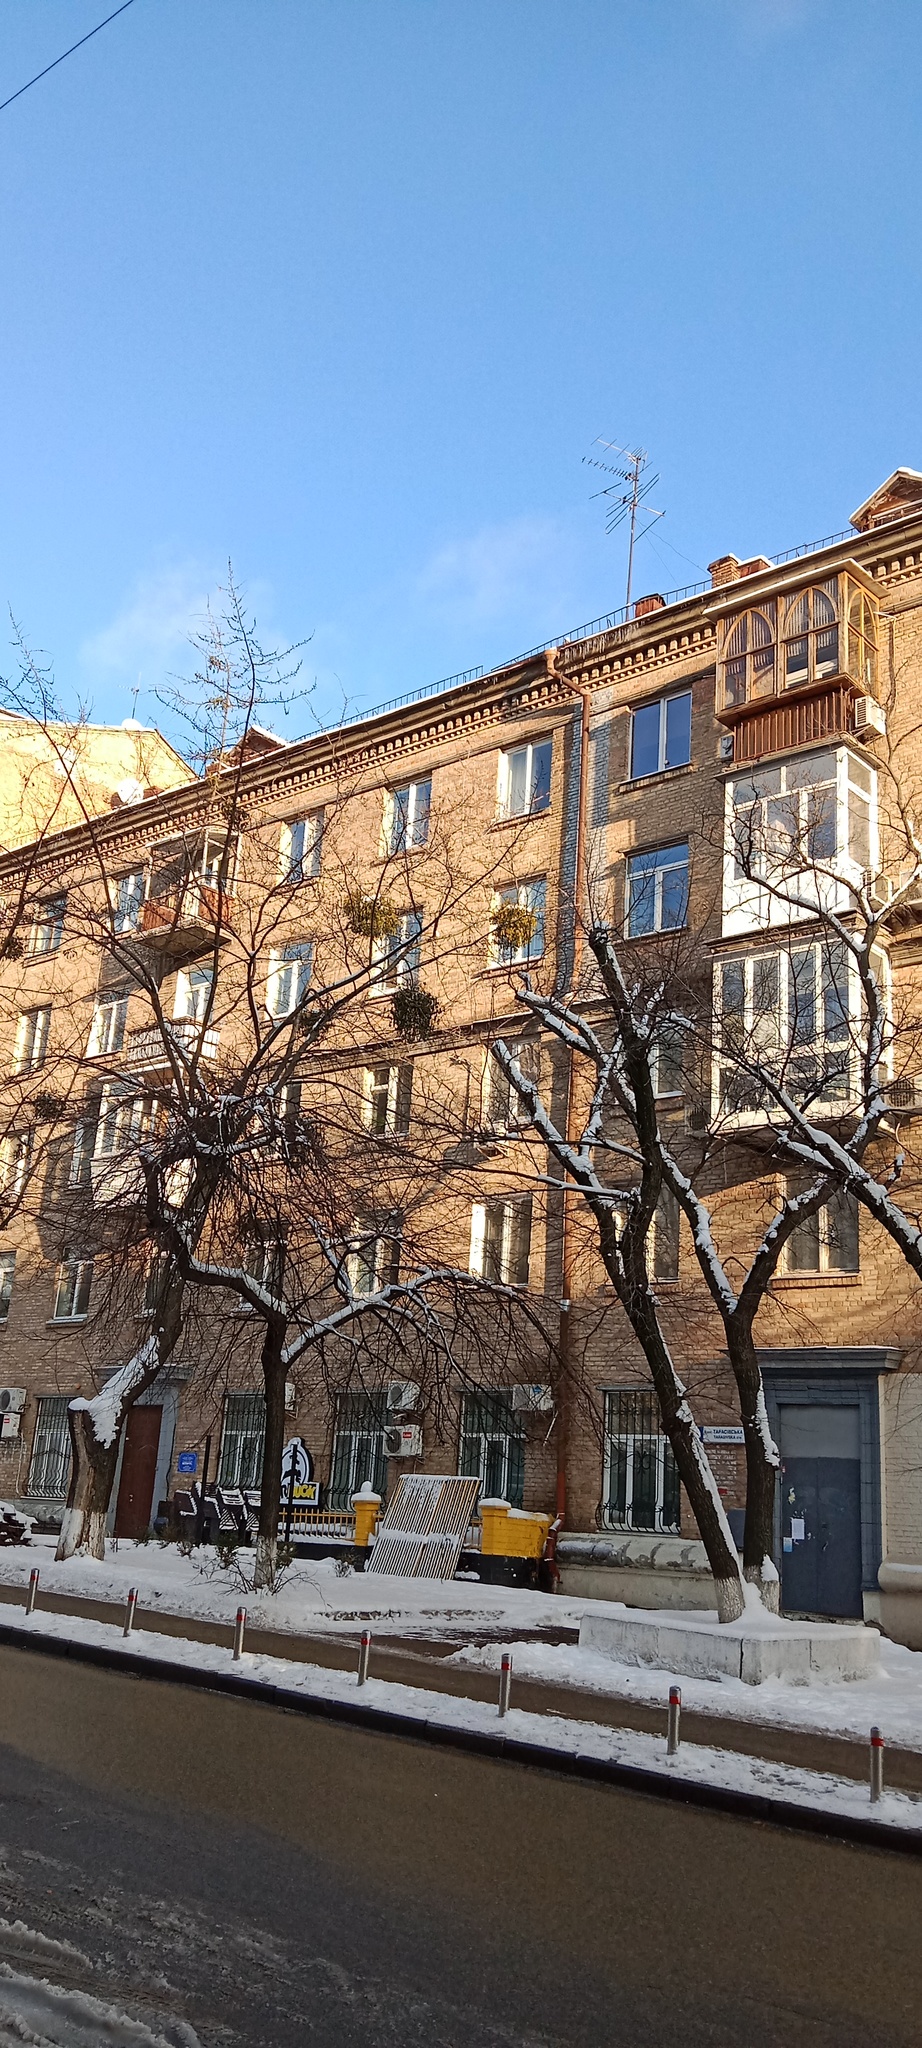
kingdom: Plantae
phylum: Tracheophyta
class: Magnoliopsida
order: Santalales
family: Viscaceae
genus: Viscum
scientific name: Viscum album
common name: Mistletoe
